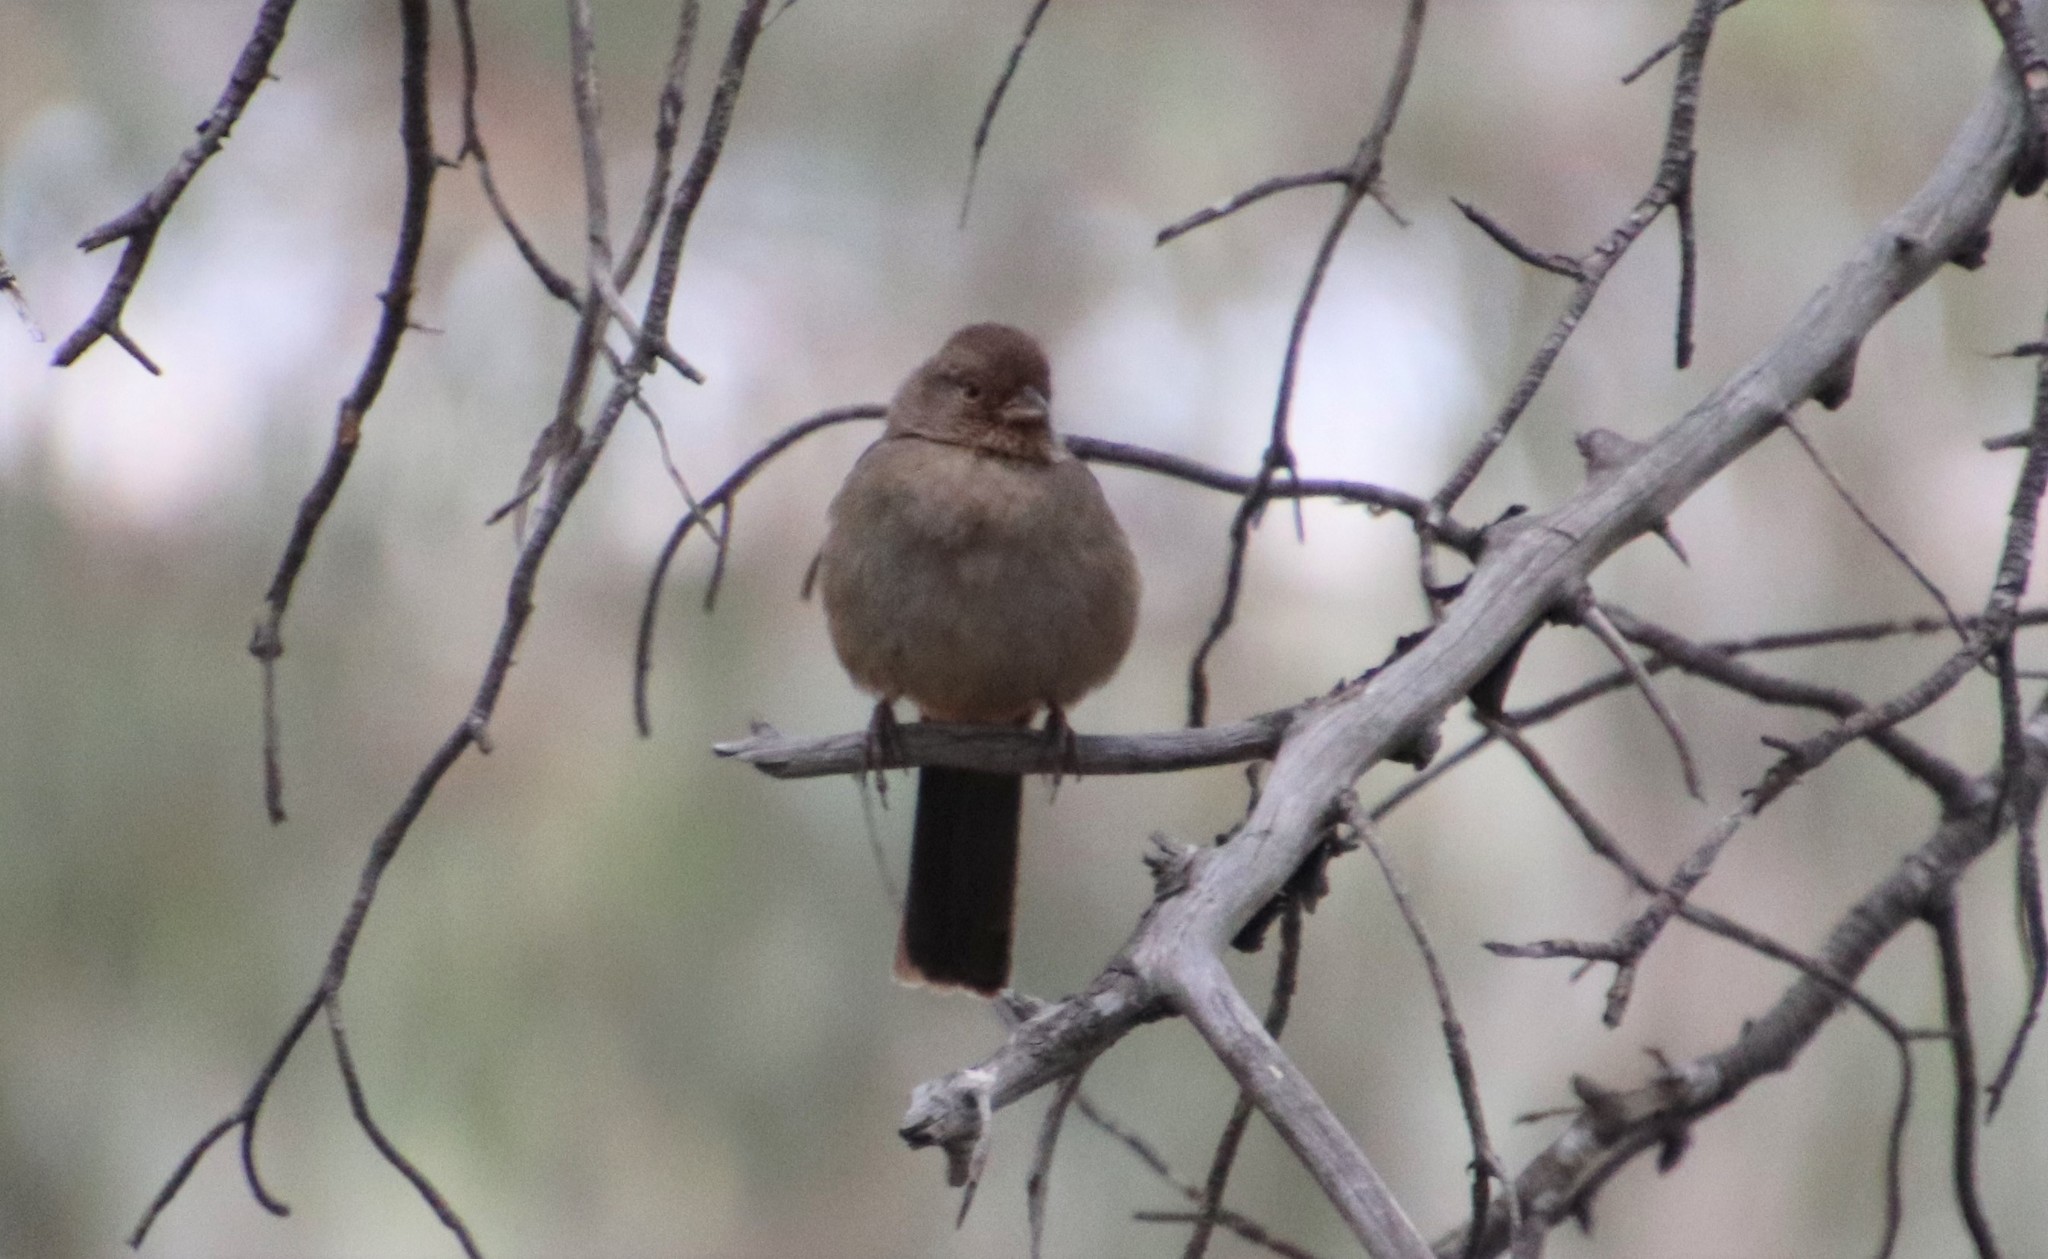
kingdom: Animalia
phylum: Chordata
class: Aves
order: Passeriformes
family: Passerellidae
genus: Melozone
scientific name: Melozone crissalis
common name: California towhee
